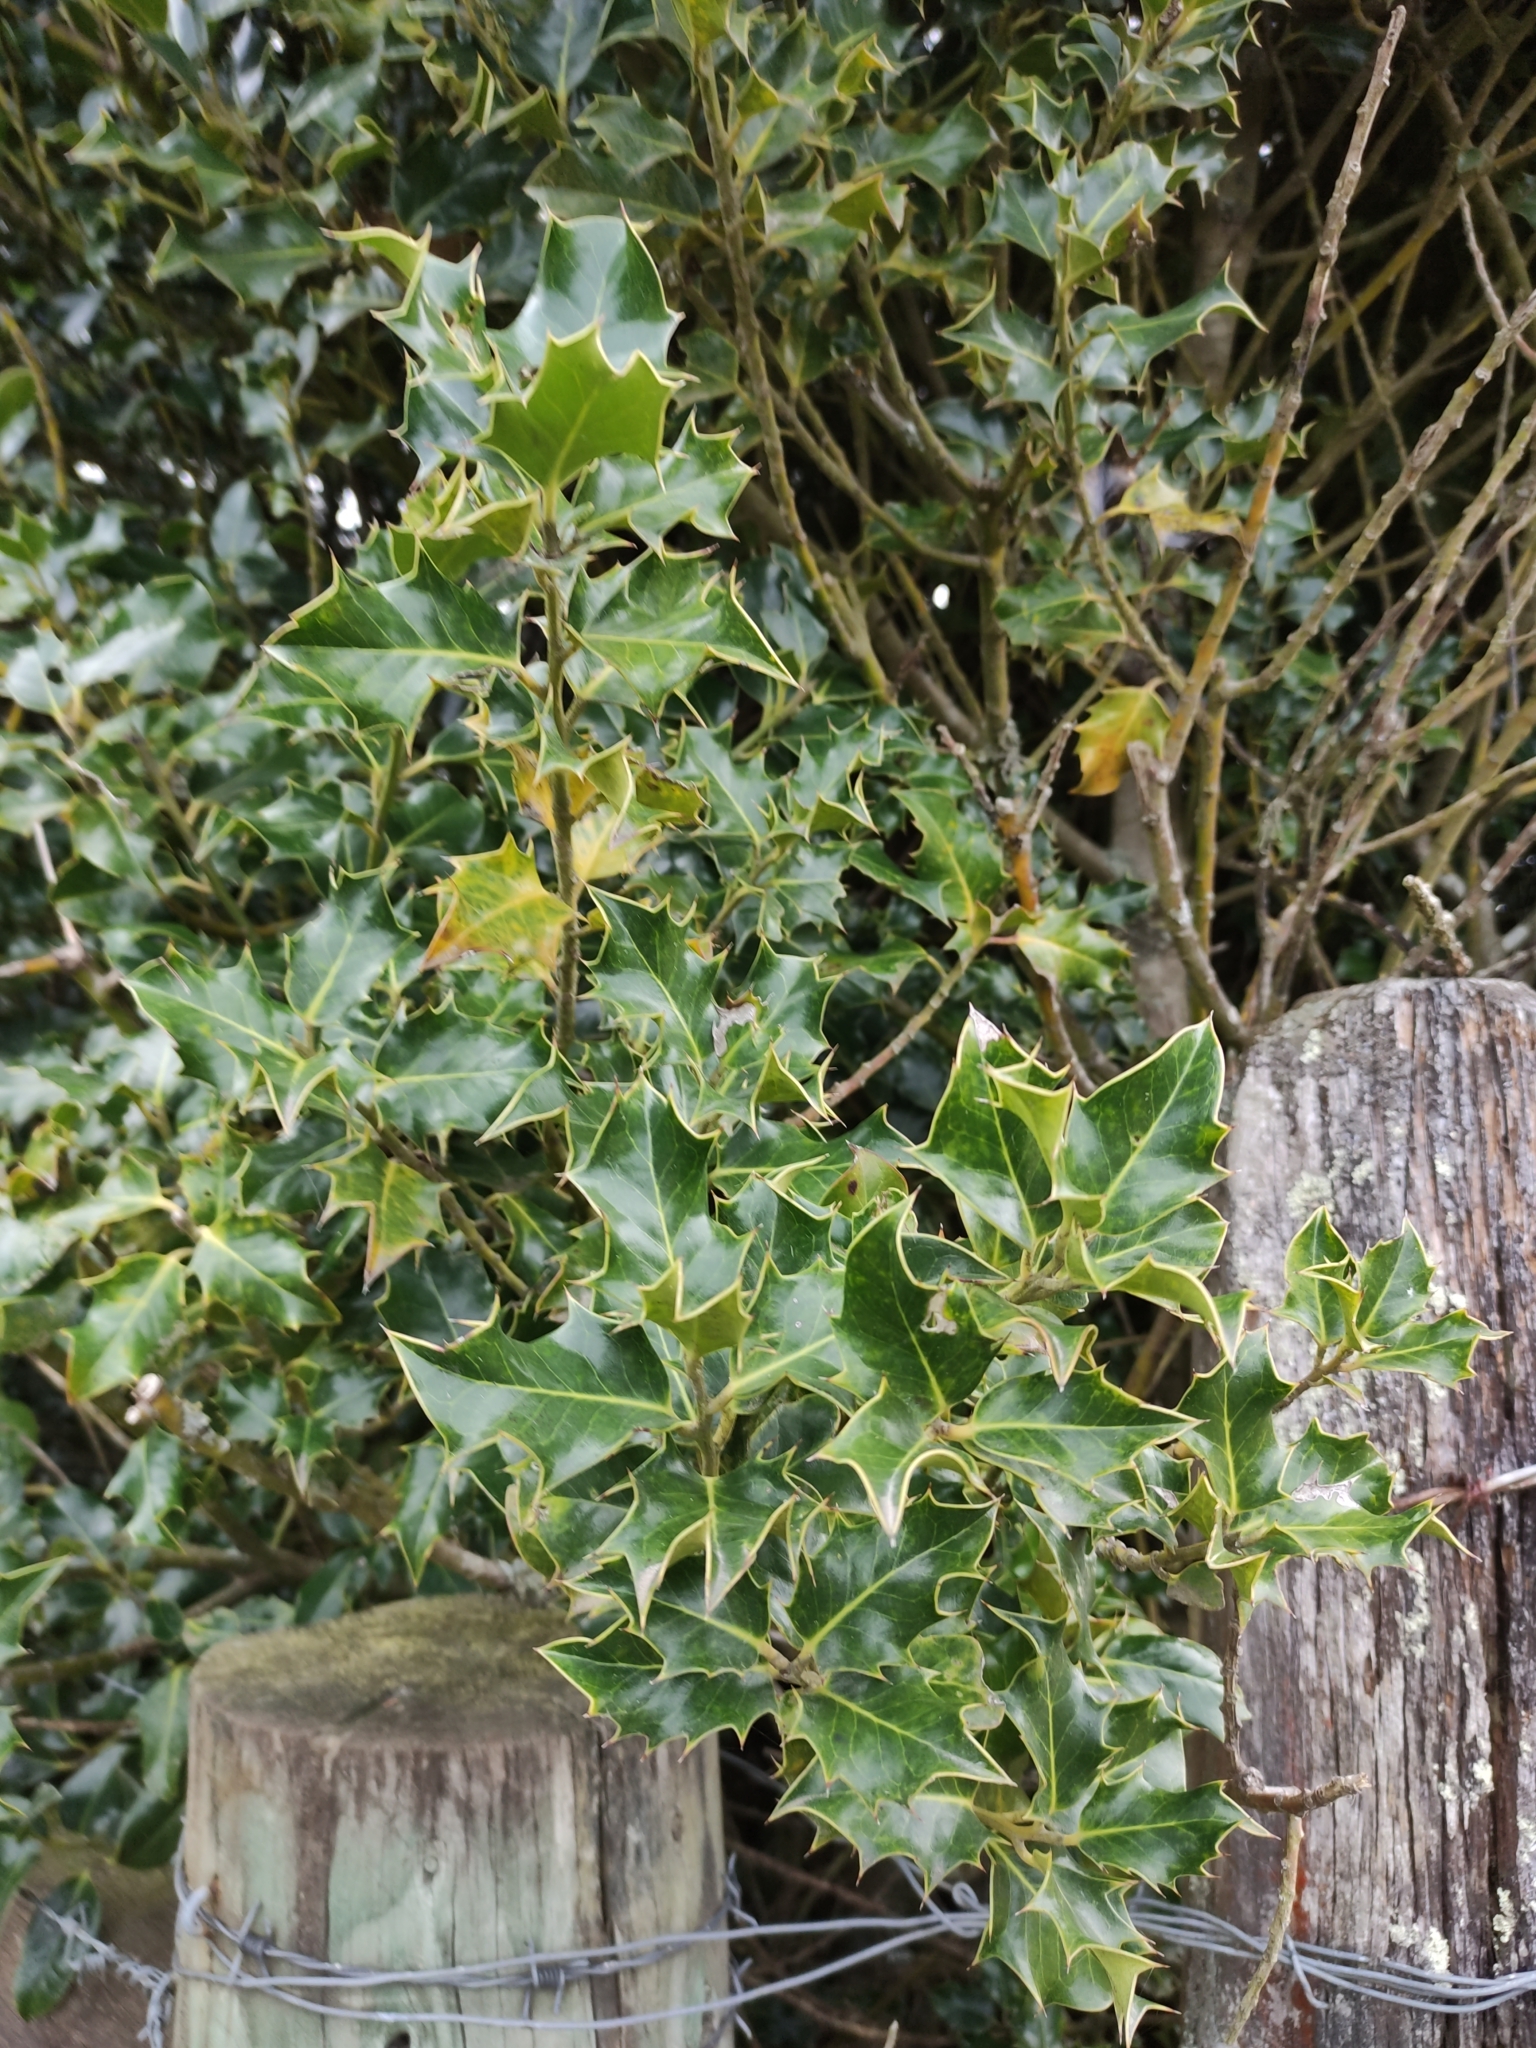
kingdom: Plantae
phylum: Tracheophyta
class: Magnoliopsida
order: Aquifoliales
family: Aquifoliaceae
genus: Ilex
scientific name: Ilex aquifolium
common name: English holly
